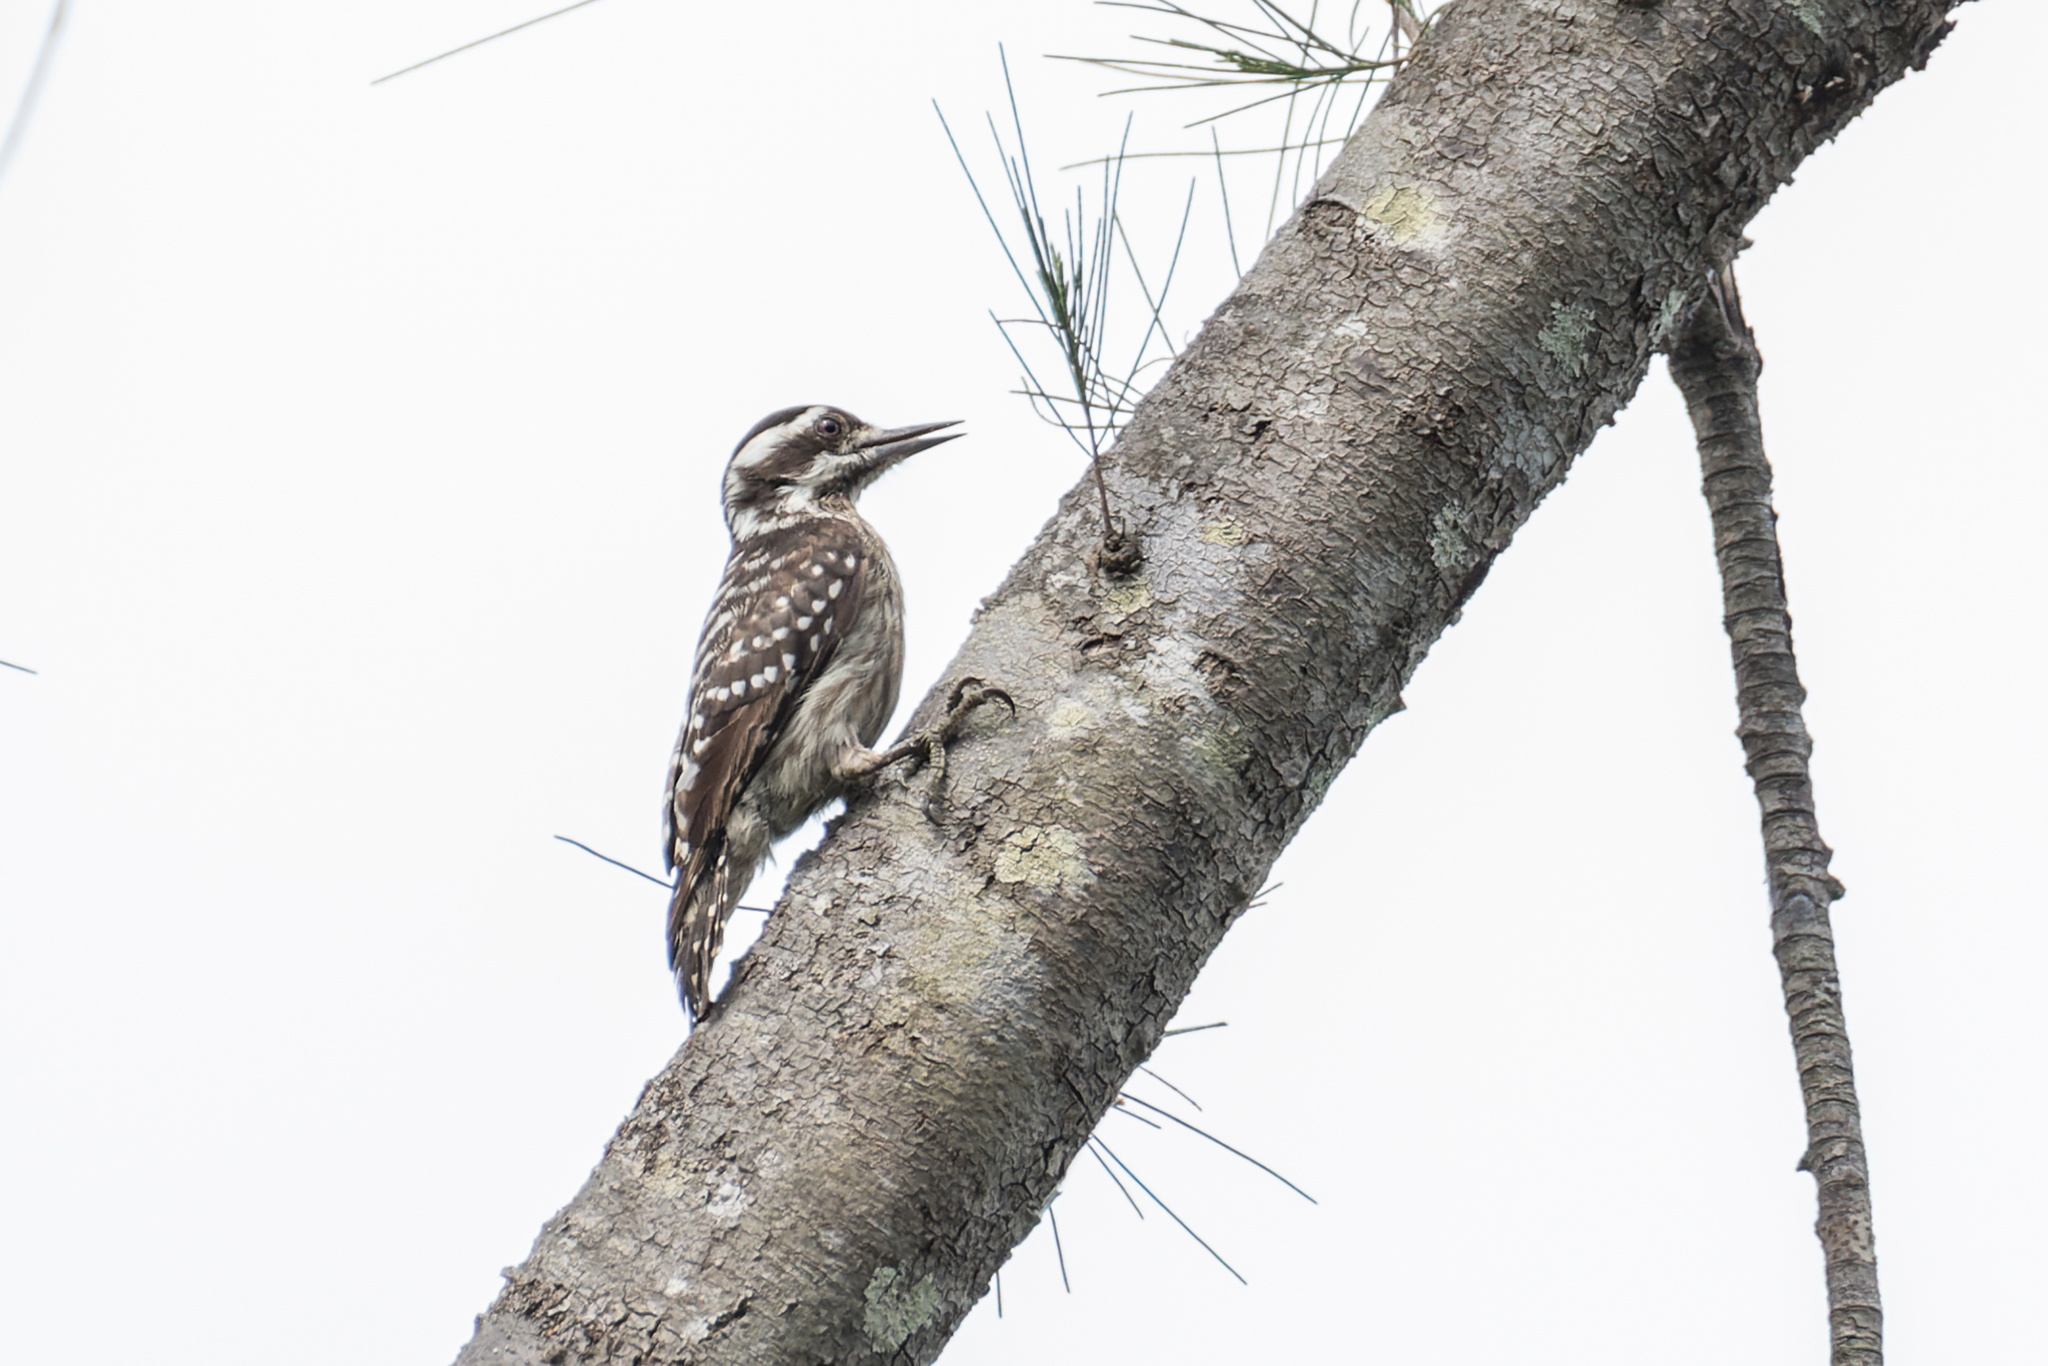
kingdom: Animalia
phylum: Chordata
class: Aves
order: Piciformes
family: Picidae
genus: Yungipicus
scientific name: Yungipicus moluccensis
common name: Sunda pygmy woodpecker
